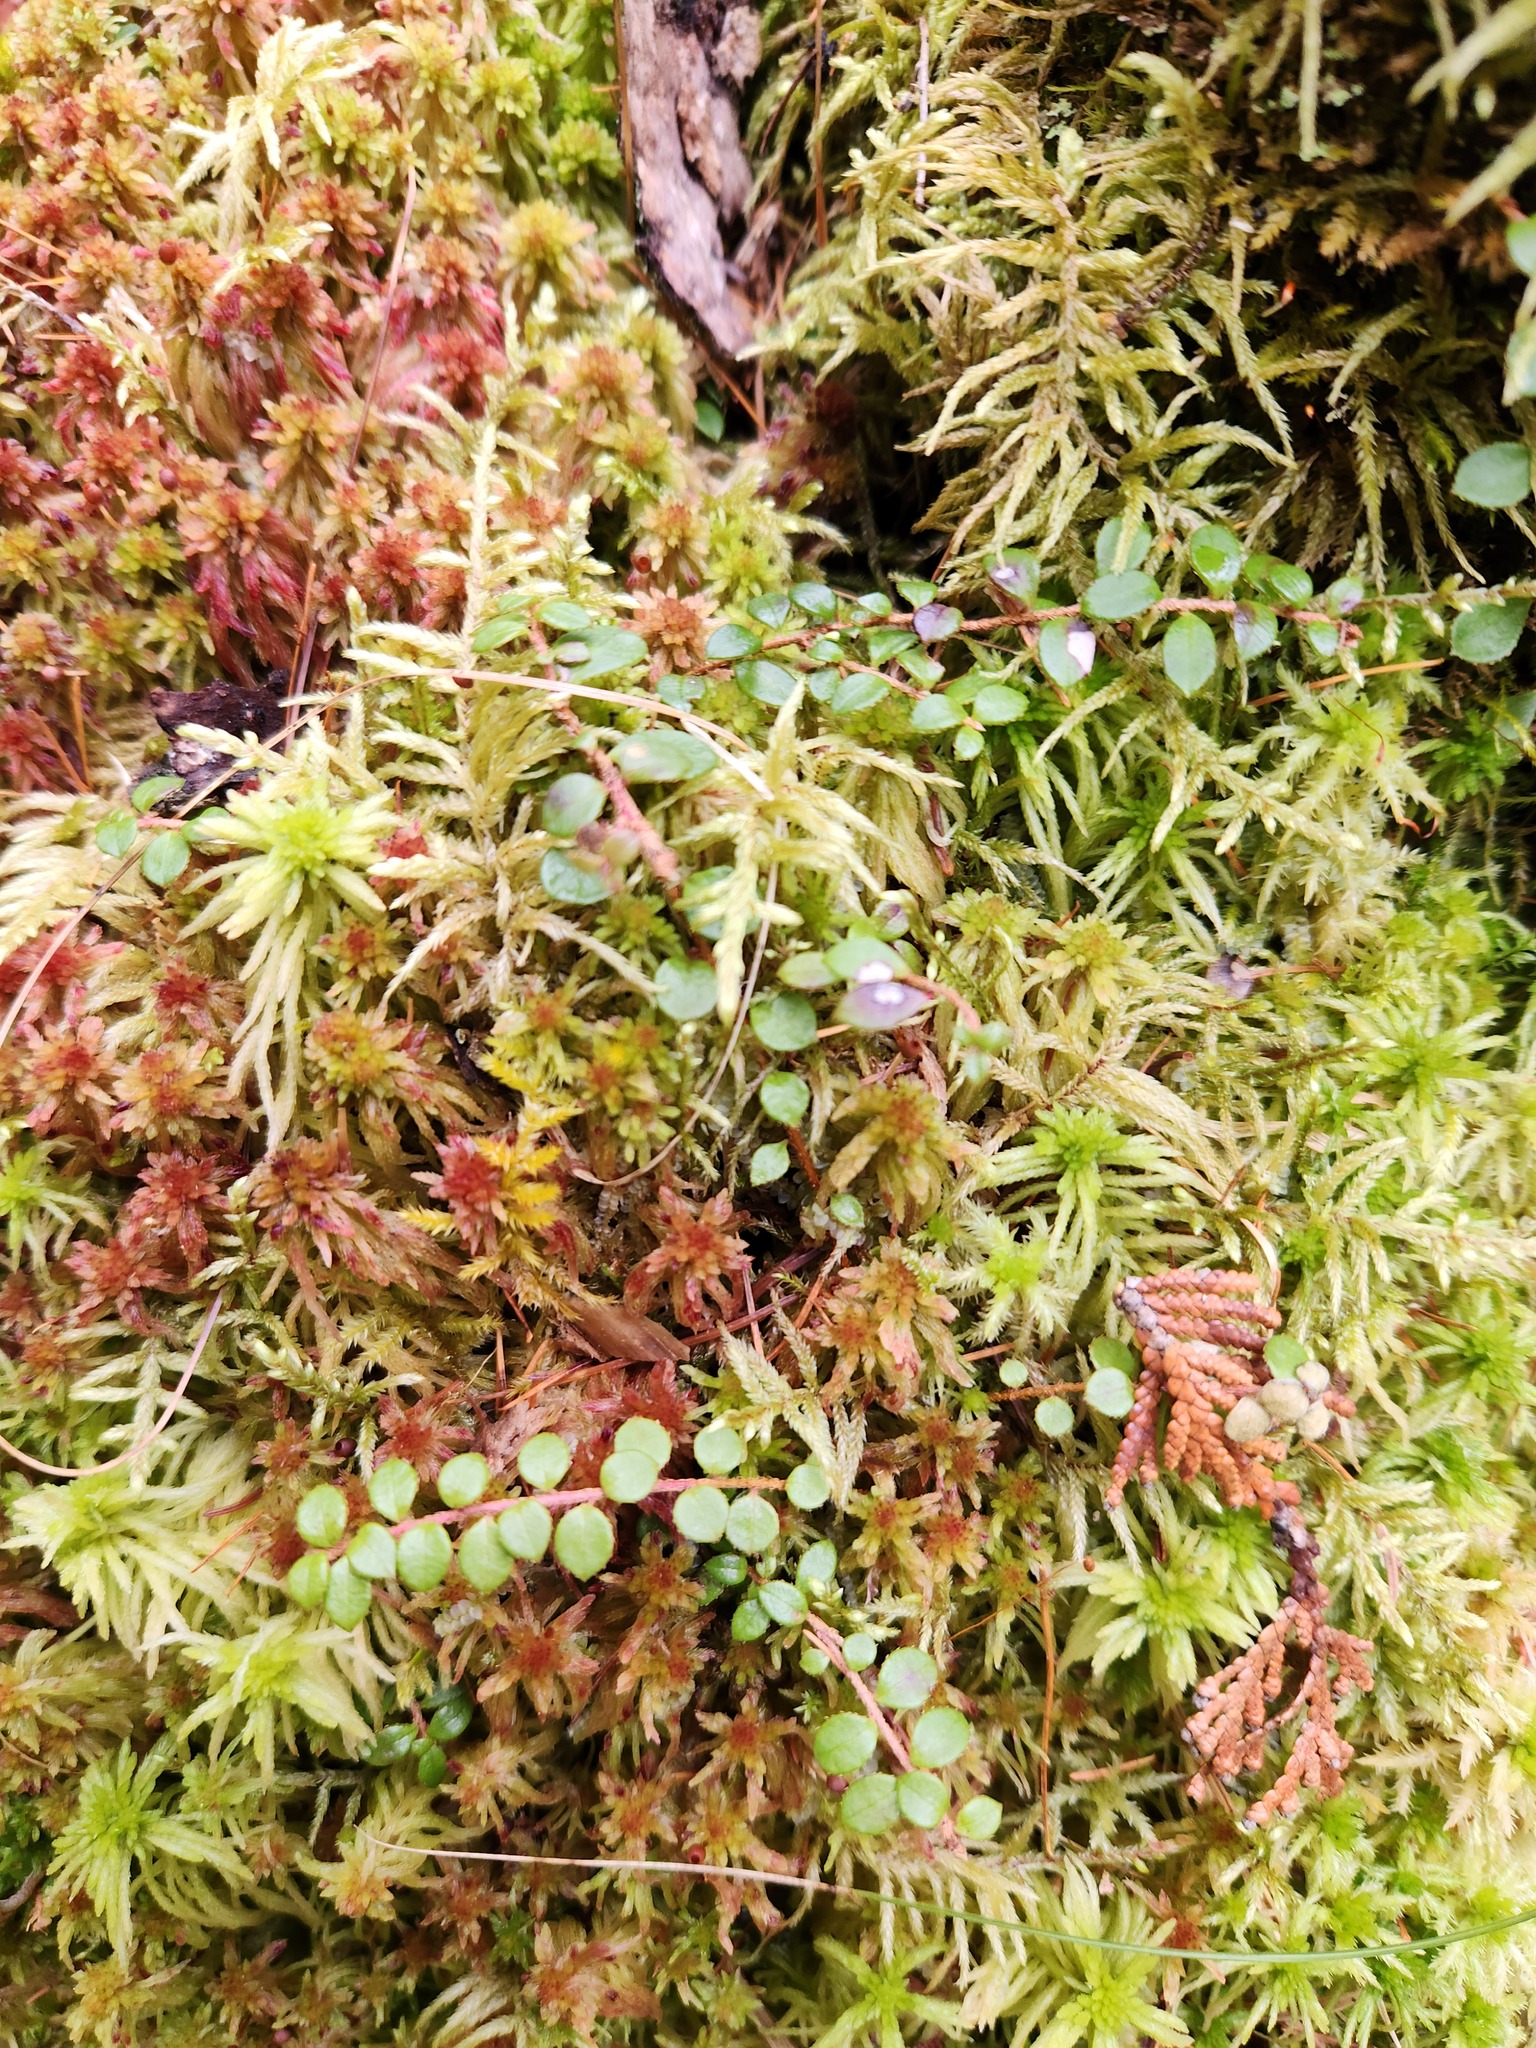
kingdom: Plantae
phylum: Tracheophyta
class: Magnoliopsida
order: Ericales
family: Ericaceae
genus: Gaultheria
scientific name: Gaultheria hispidula
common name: Cancer wintergreen
